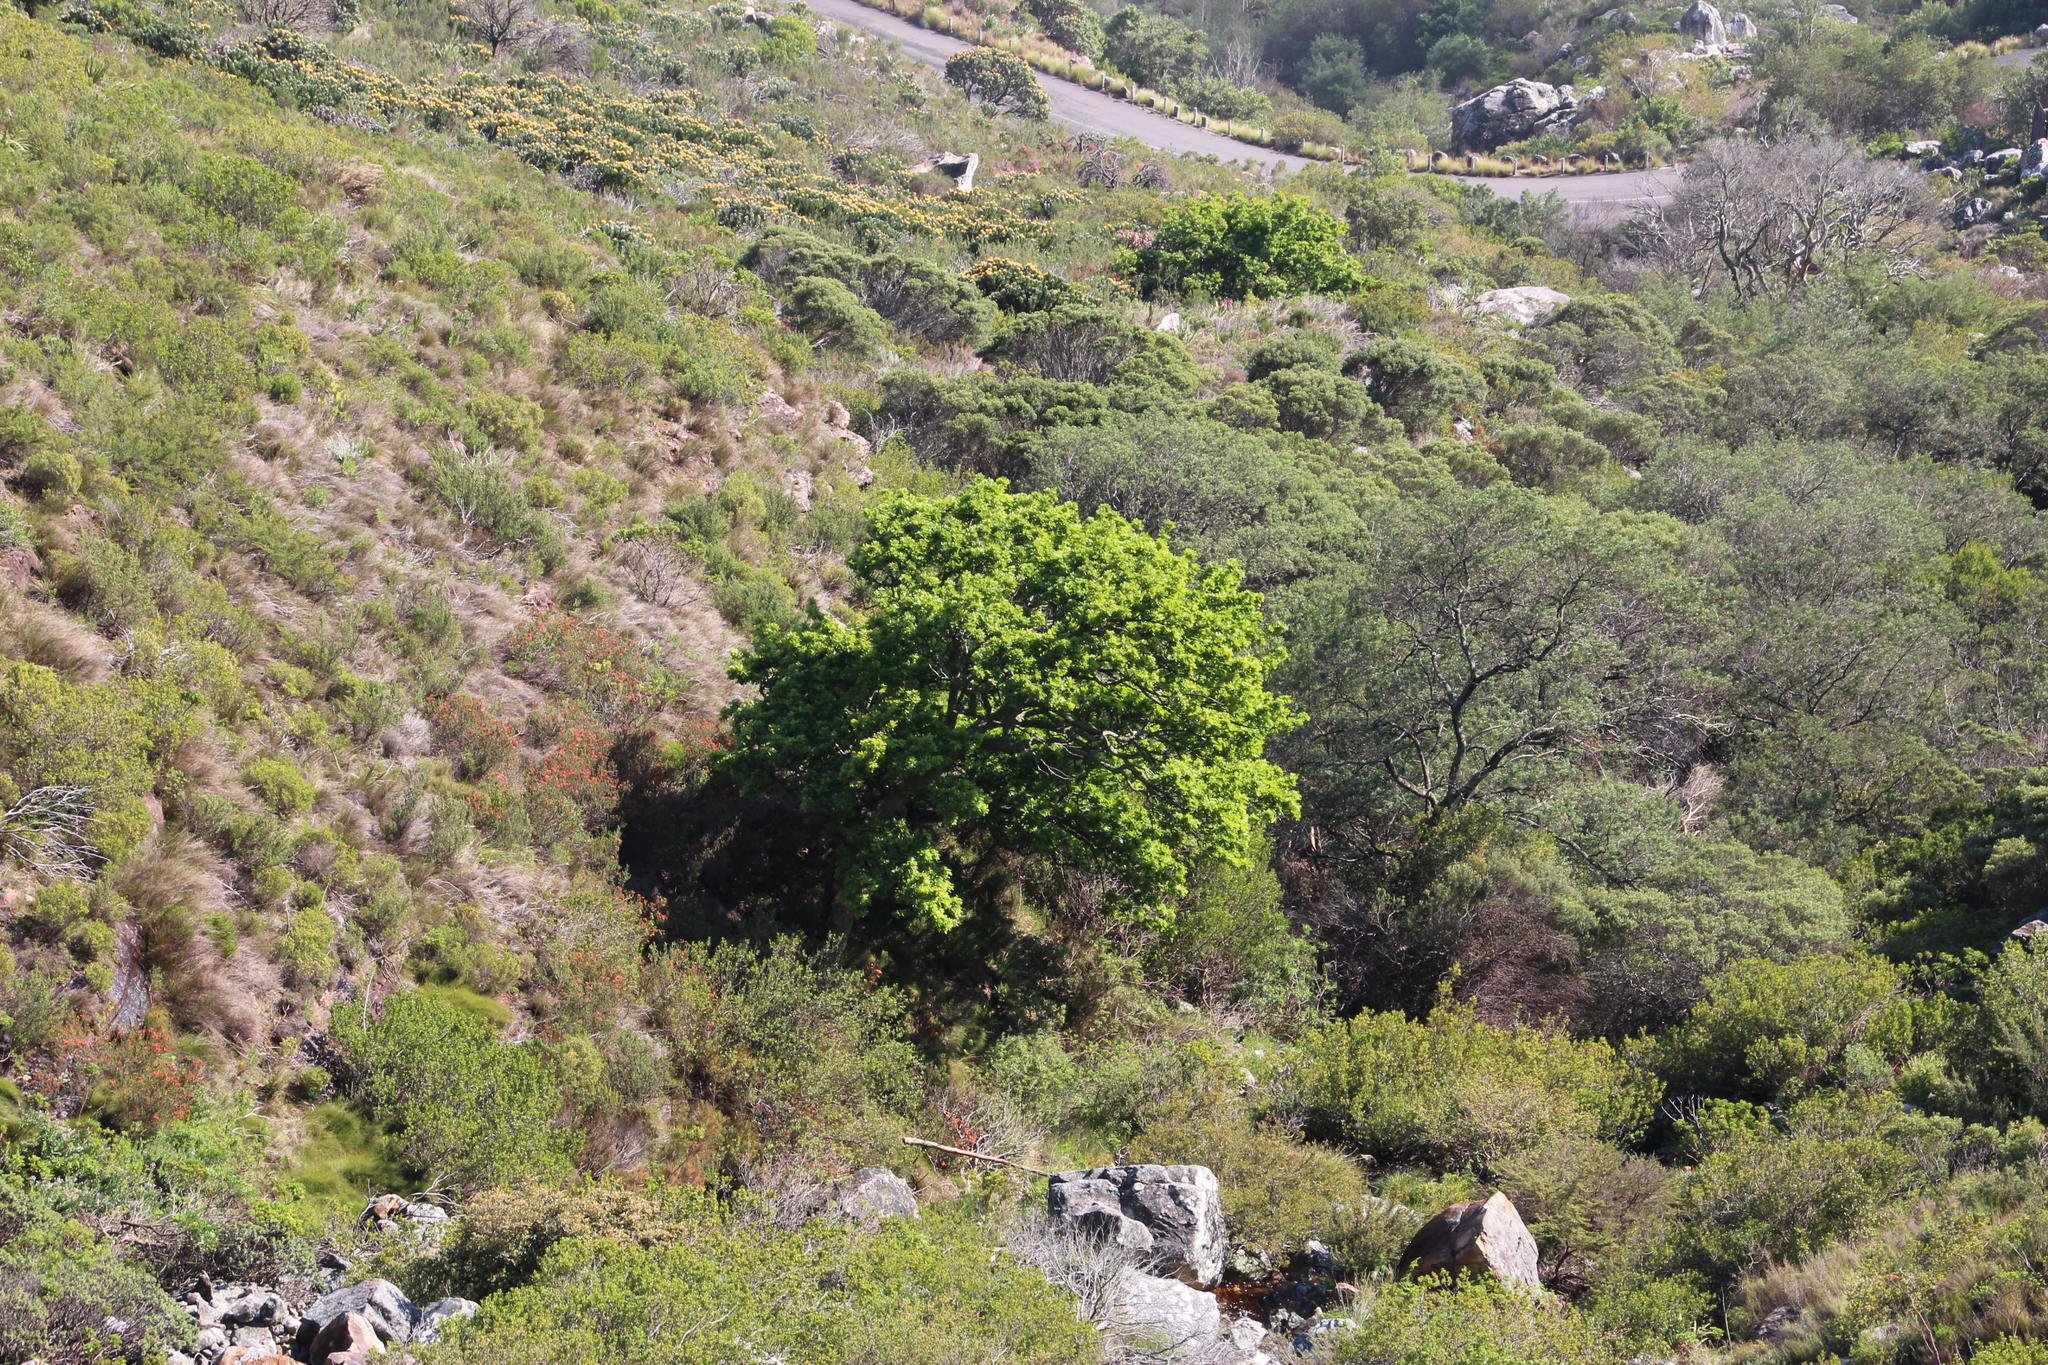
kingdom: Plantae
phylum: Tracheophyta
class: Magnoliopsida
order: Fagales
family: Fagaceae
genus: Quercus
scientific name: Quercus robur
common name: Pedunculate oak
